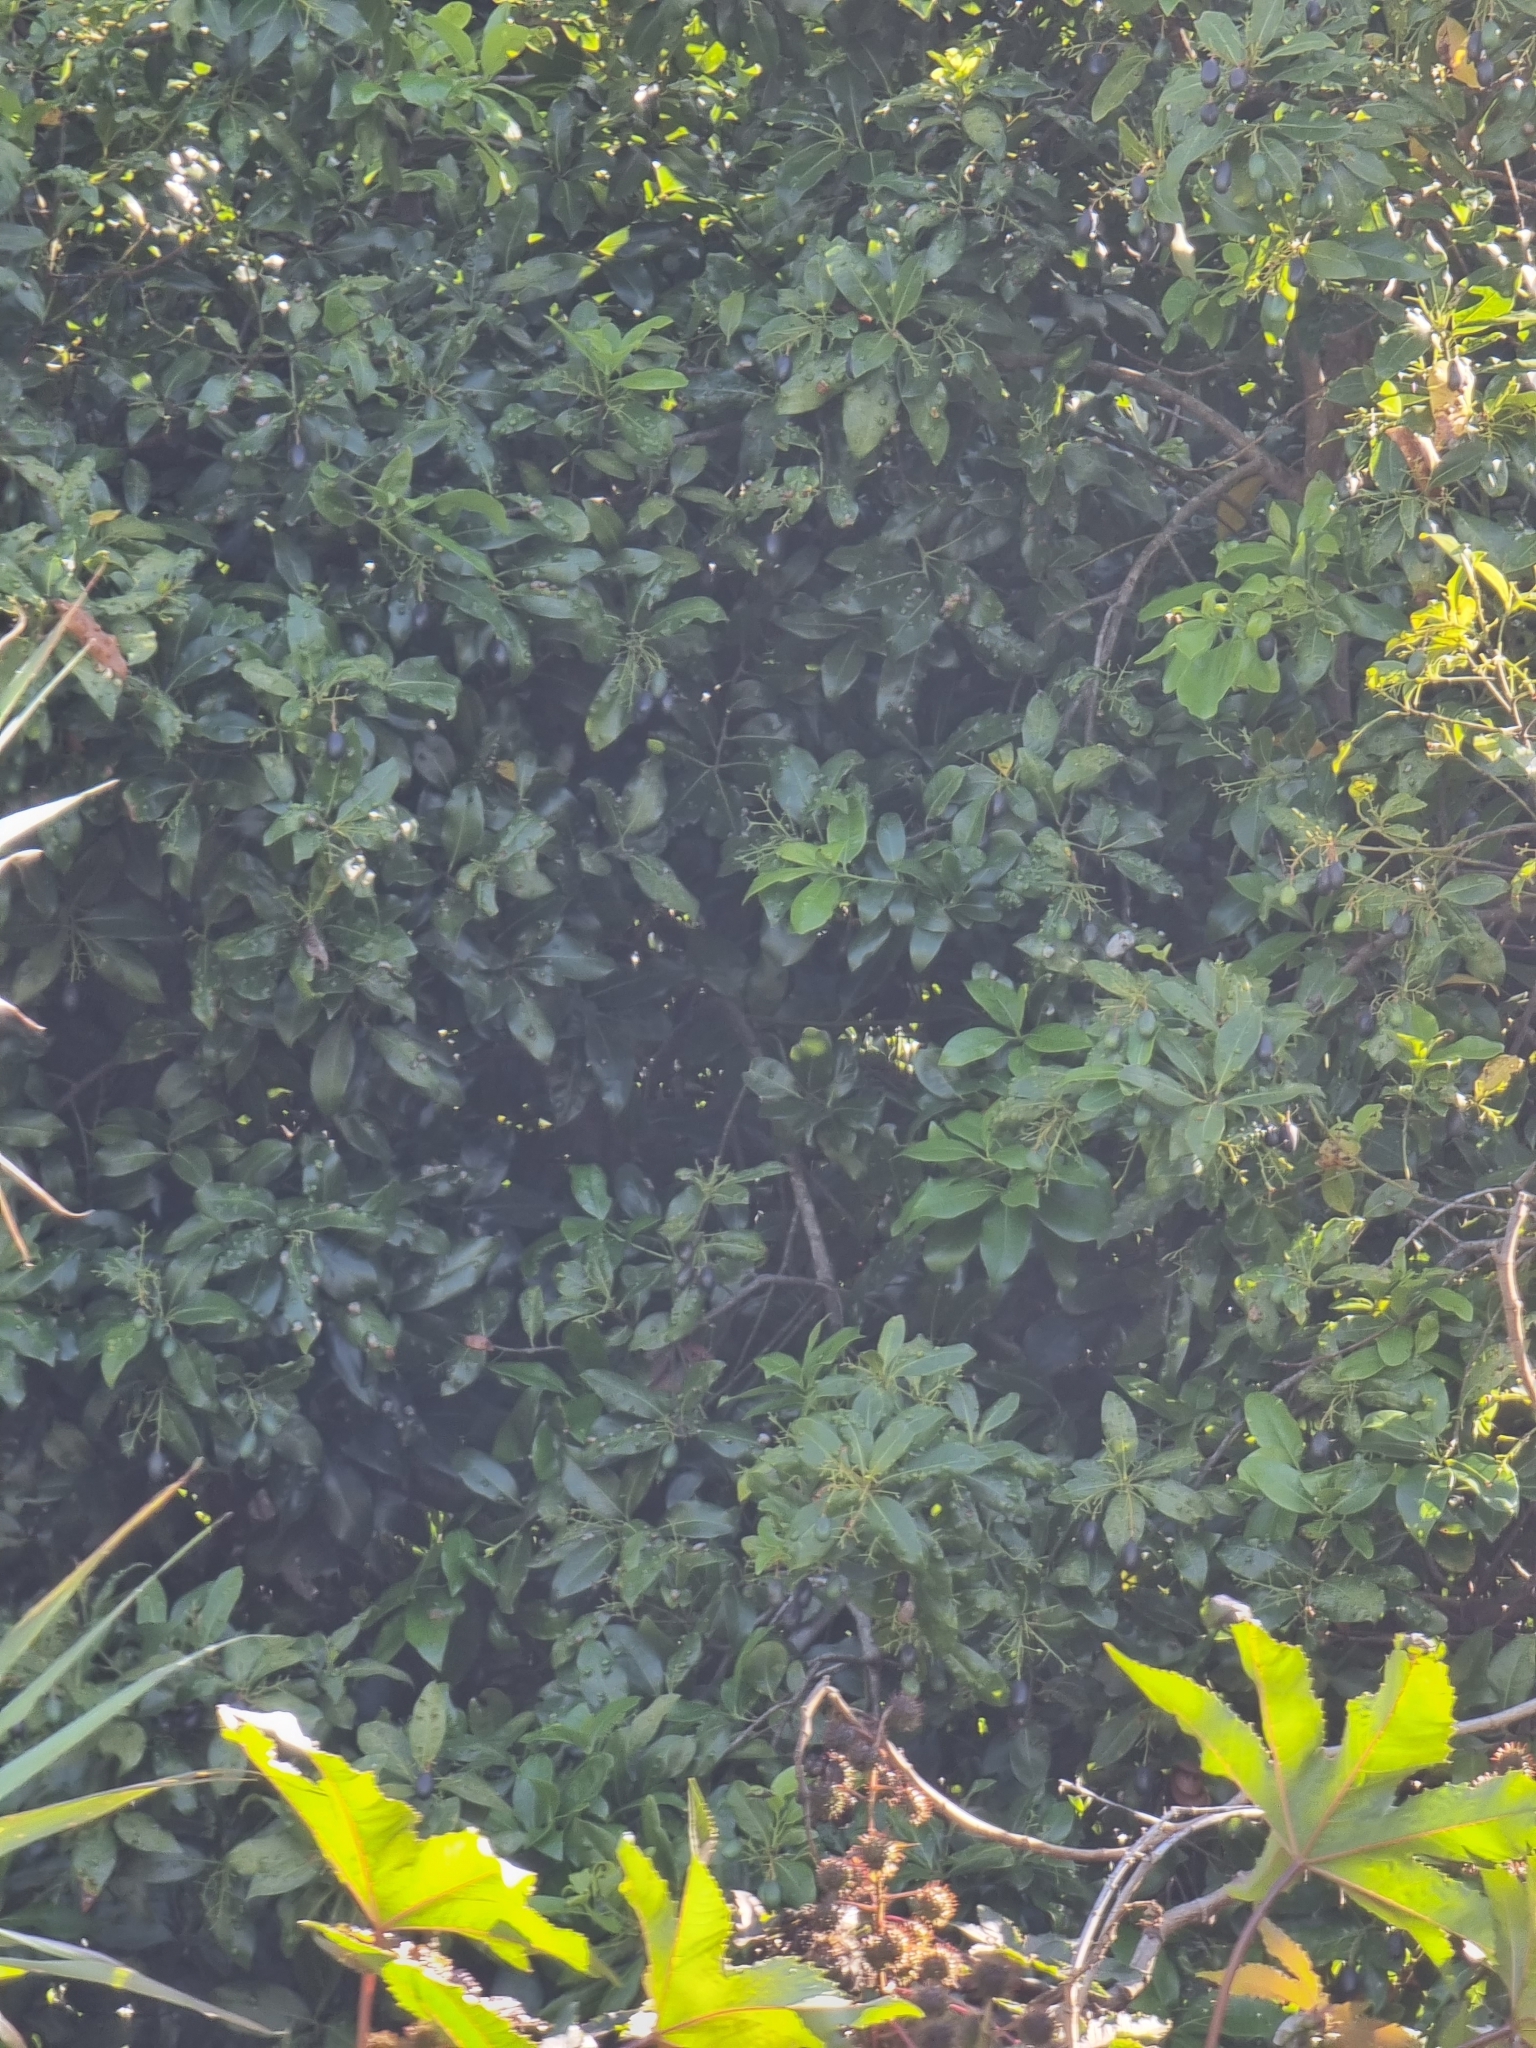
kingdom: Plantae
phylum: Tracheophyta
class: Magnoliopsida
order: Laurales
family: Lauraceae
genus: Apollonias
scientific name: Apollonias barbujana
